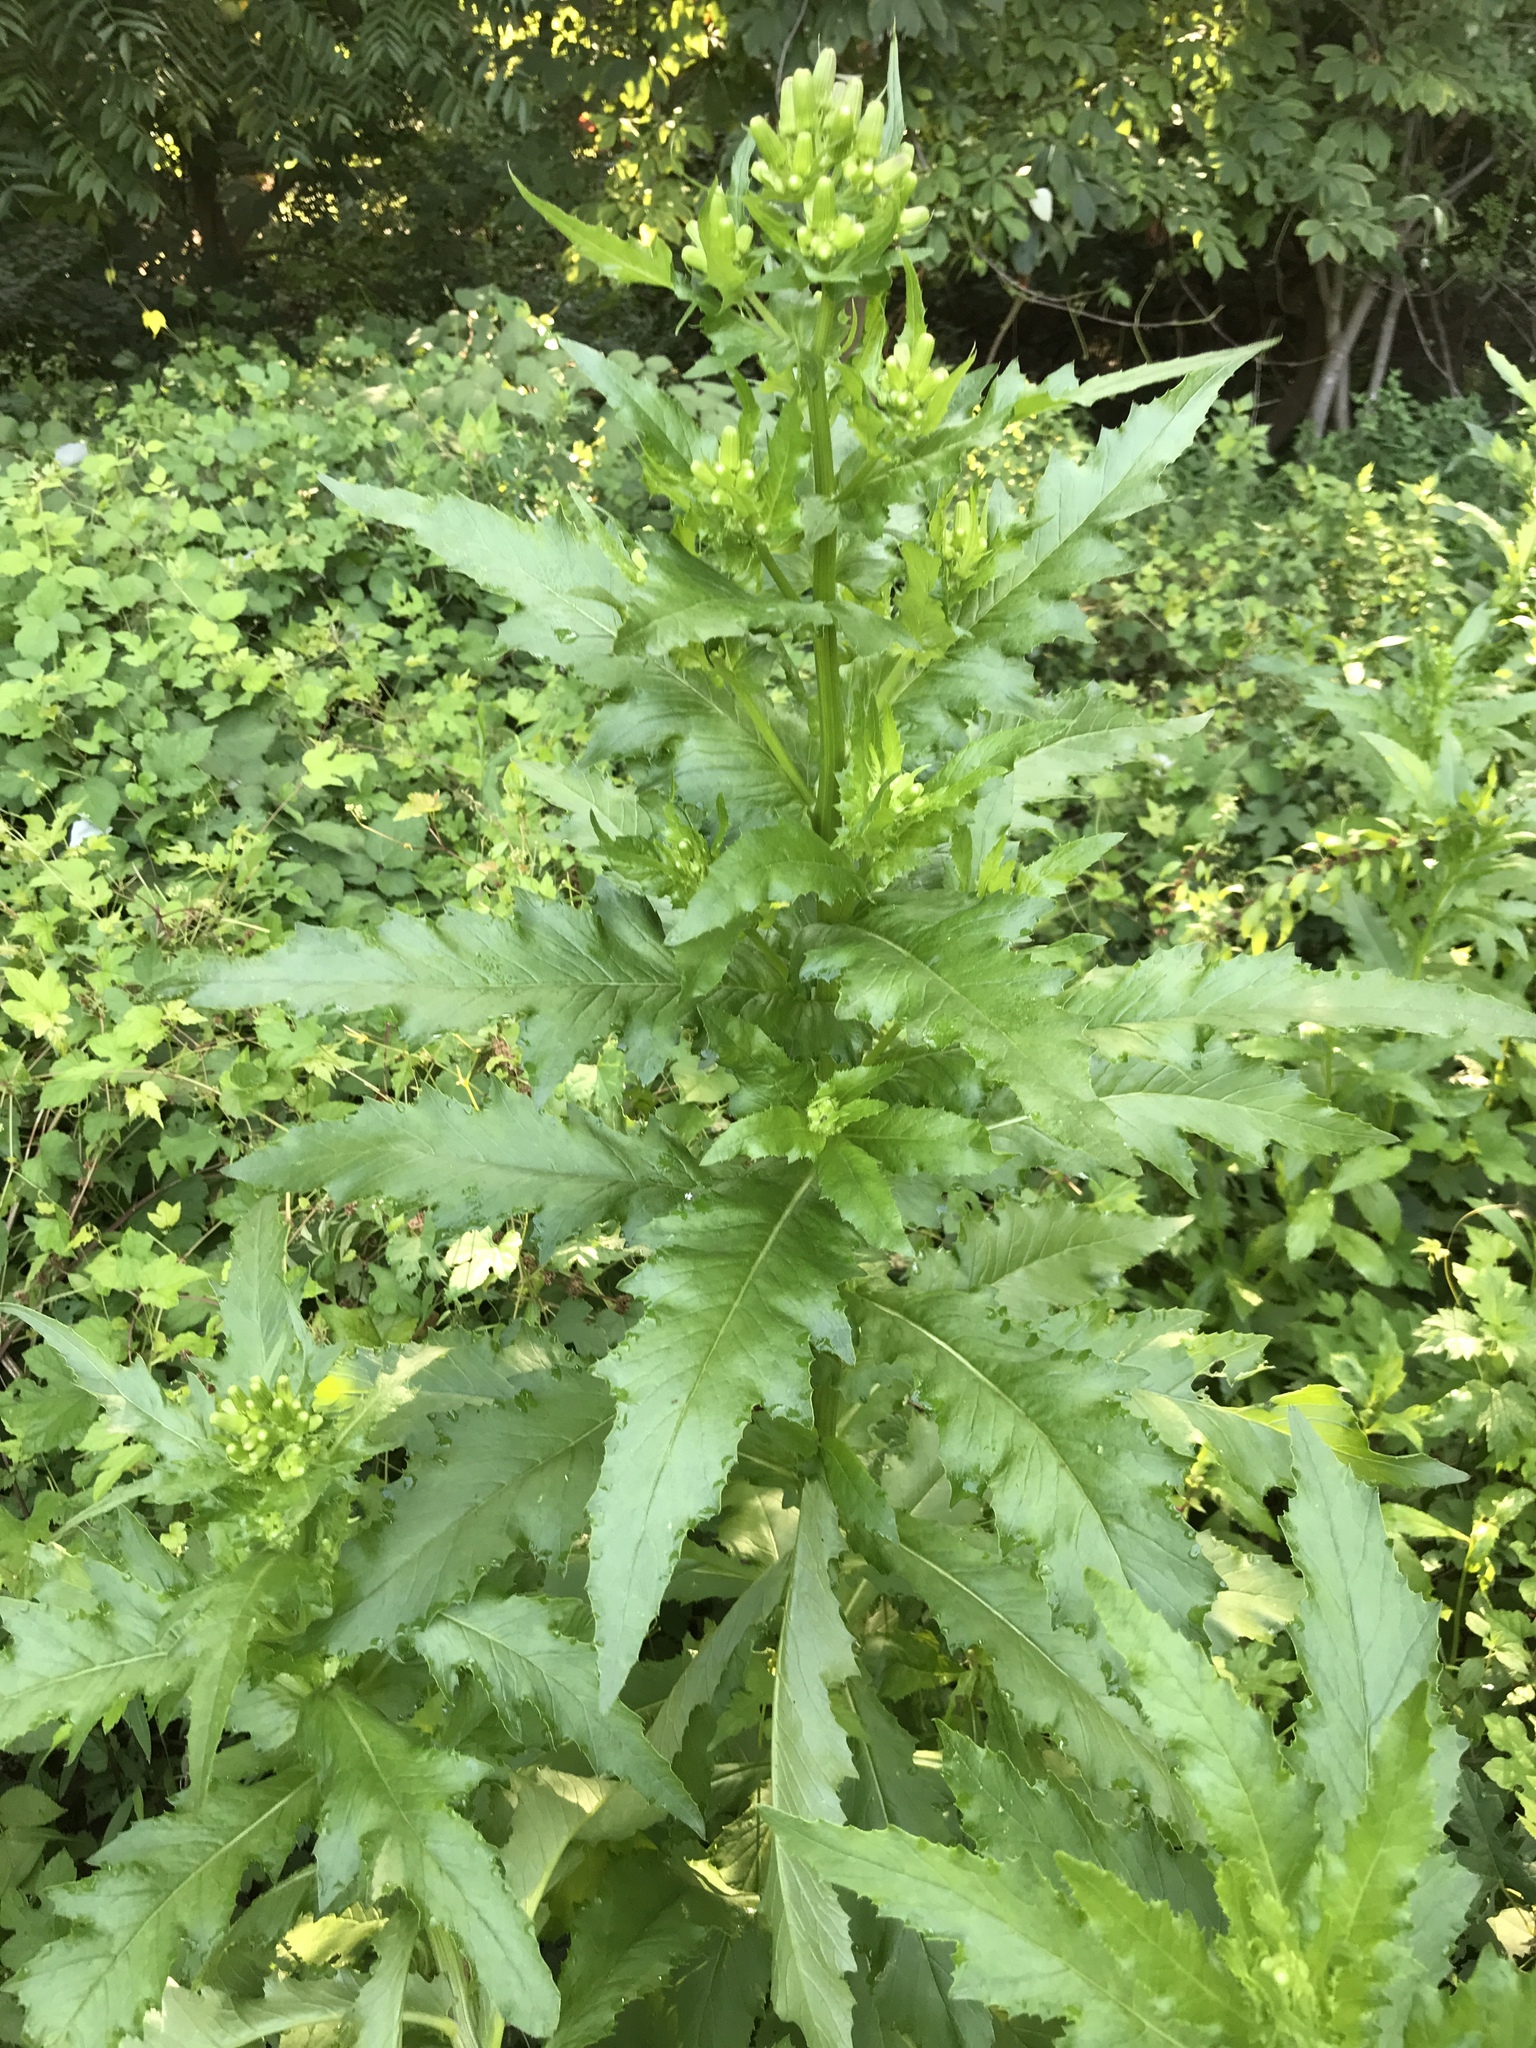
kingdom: Plantae
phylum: Tracheophyta
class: Magnoliopsida
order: Asterales
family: Asteraceae
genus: Erechtites
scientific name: Erechtites hieraciifolius
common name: American burnweed
